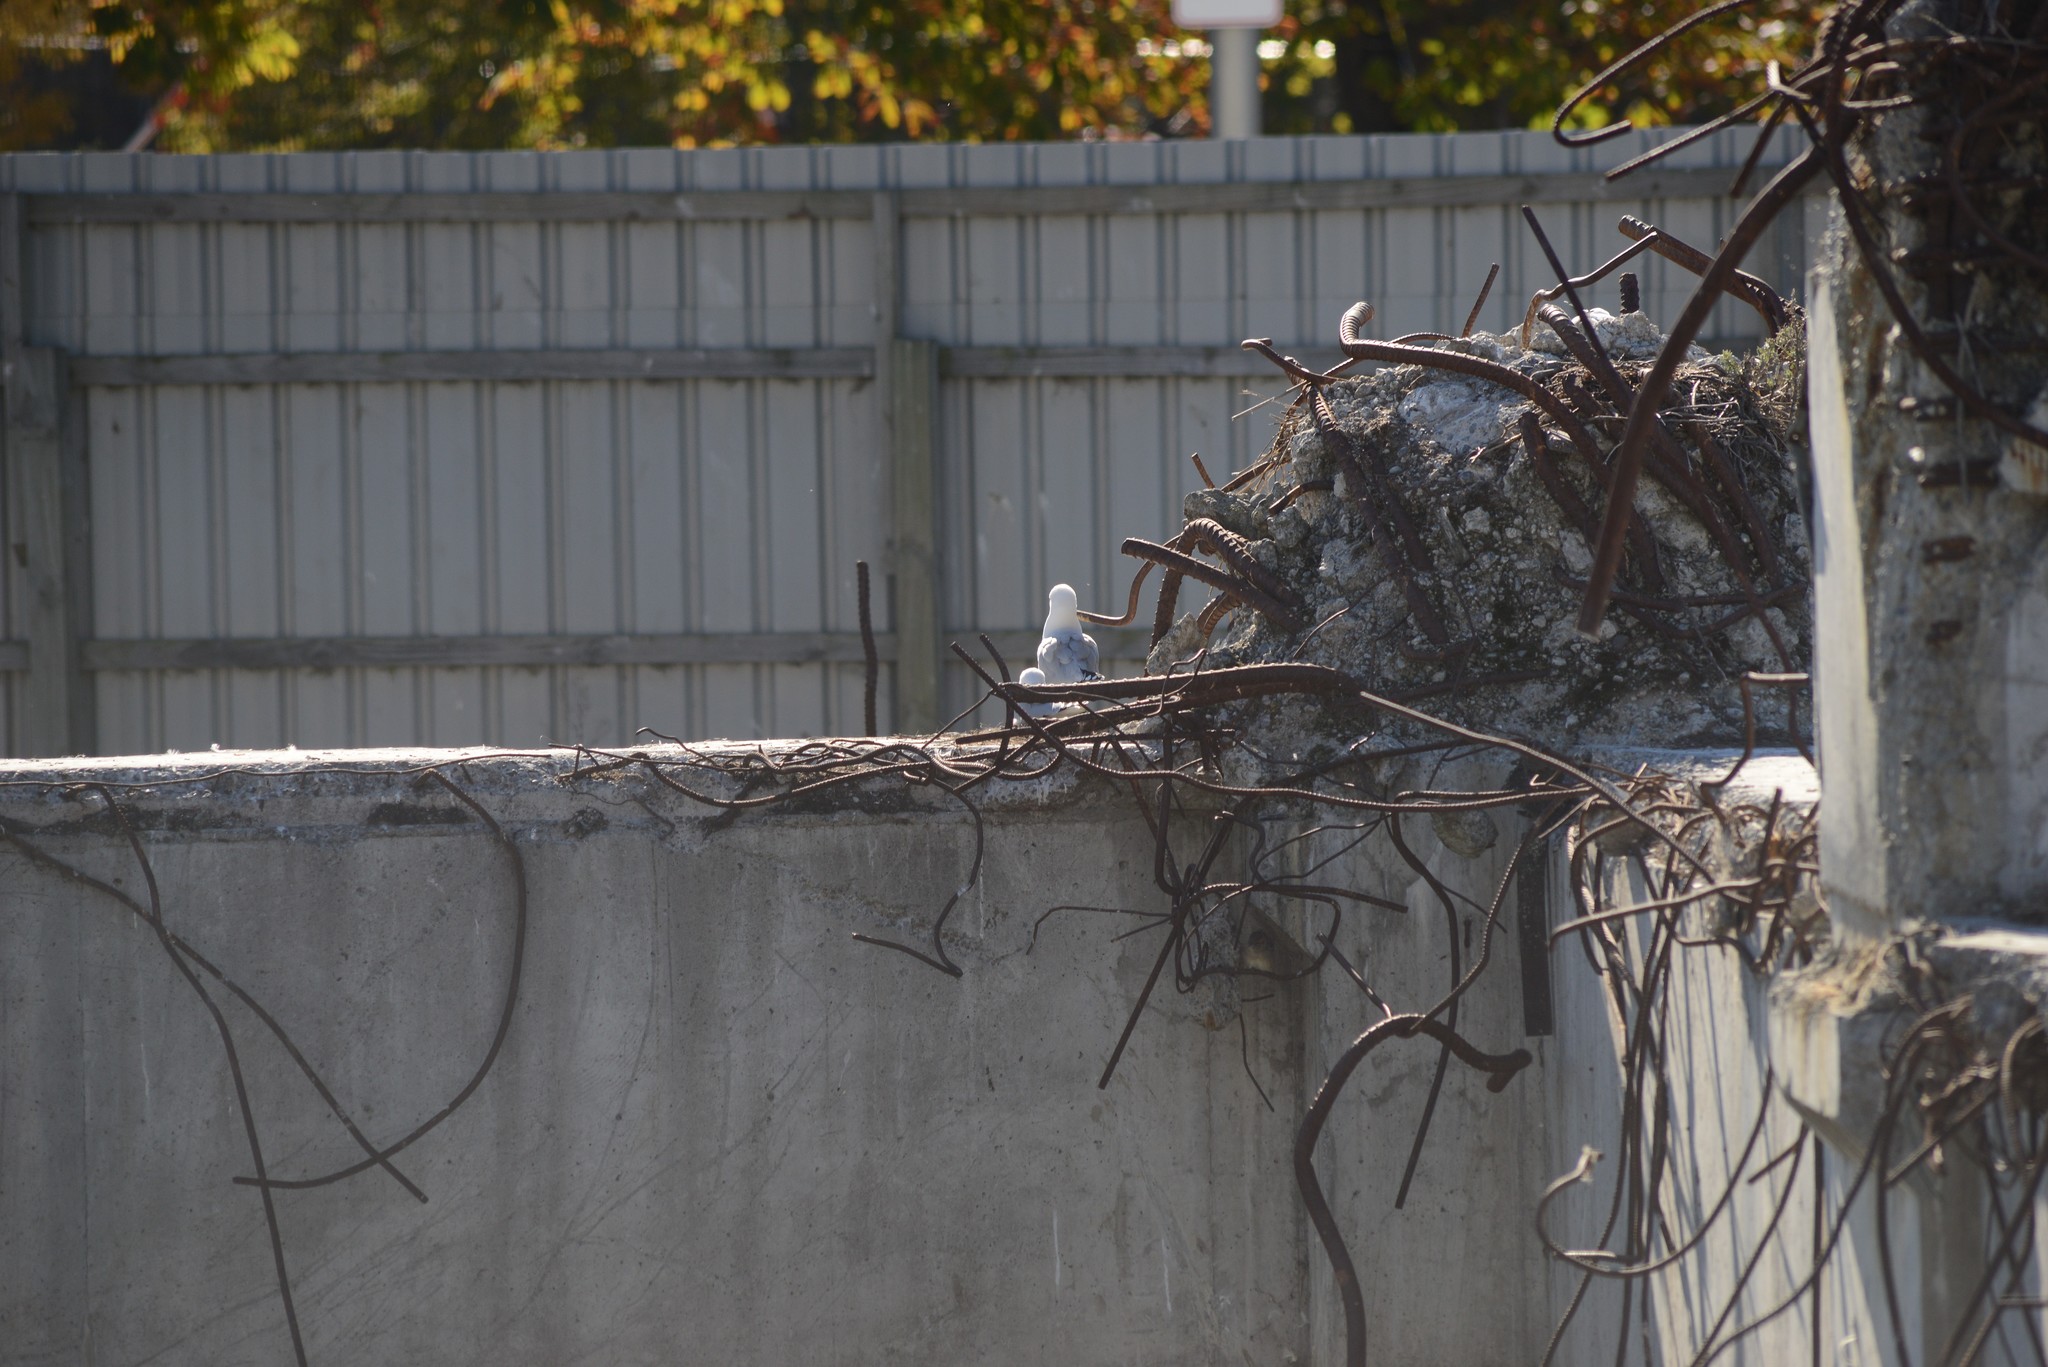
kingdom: Animalia
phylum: Chordata
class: Aves
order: Charadriiformes
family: Laridae
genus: Chroicocephalus
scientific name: Chroicocephalus novaehollandiae
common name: Silver gull
